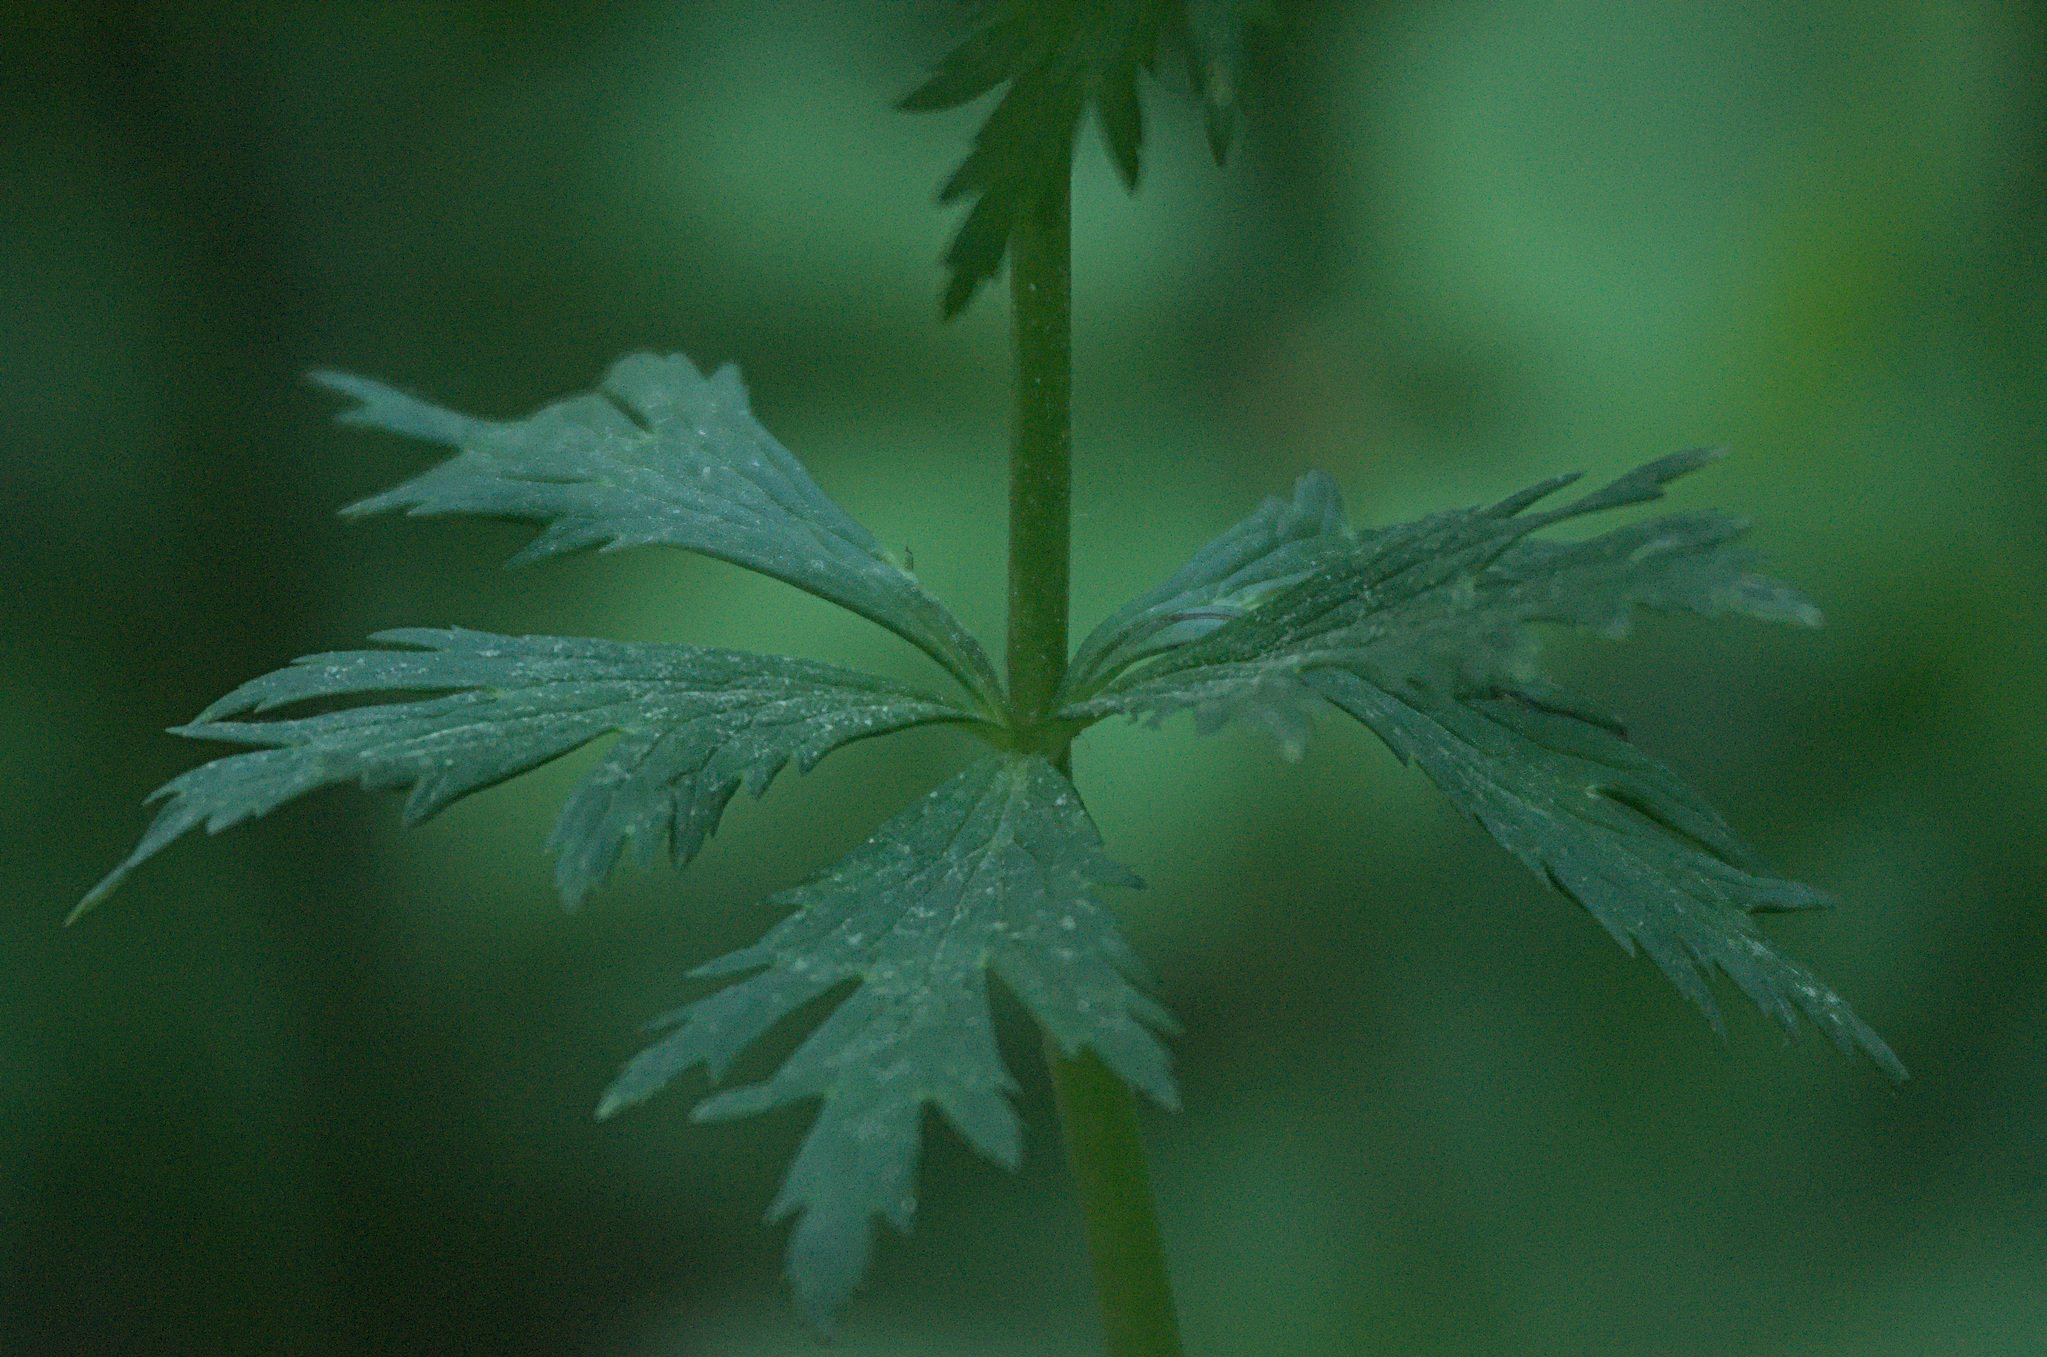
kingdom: Plantae
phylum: Tracheophyta
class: Magnoliopsida
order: Ranunculales
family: Ranunculaceae
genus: Trollius
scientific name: Trollius asiaticus
